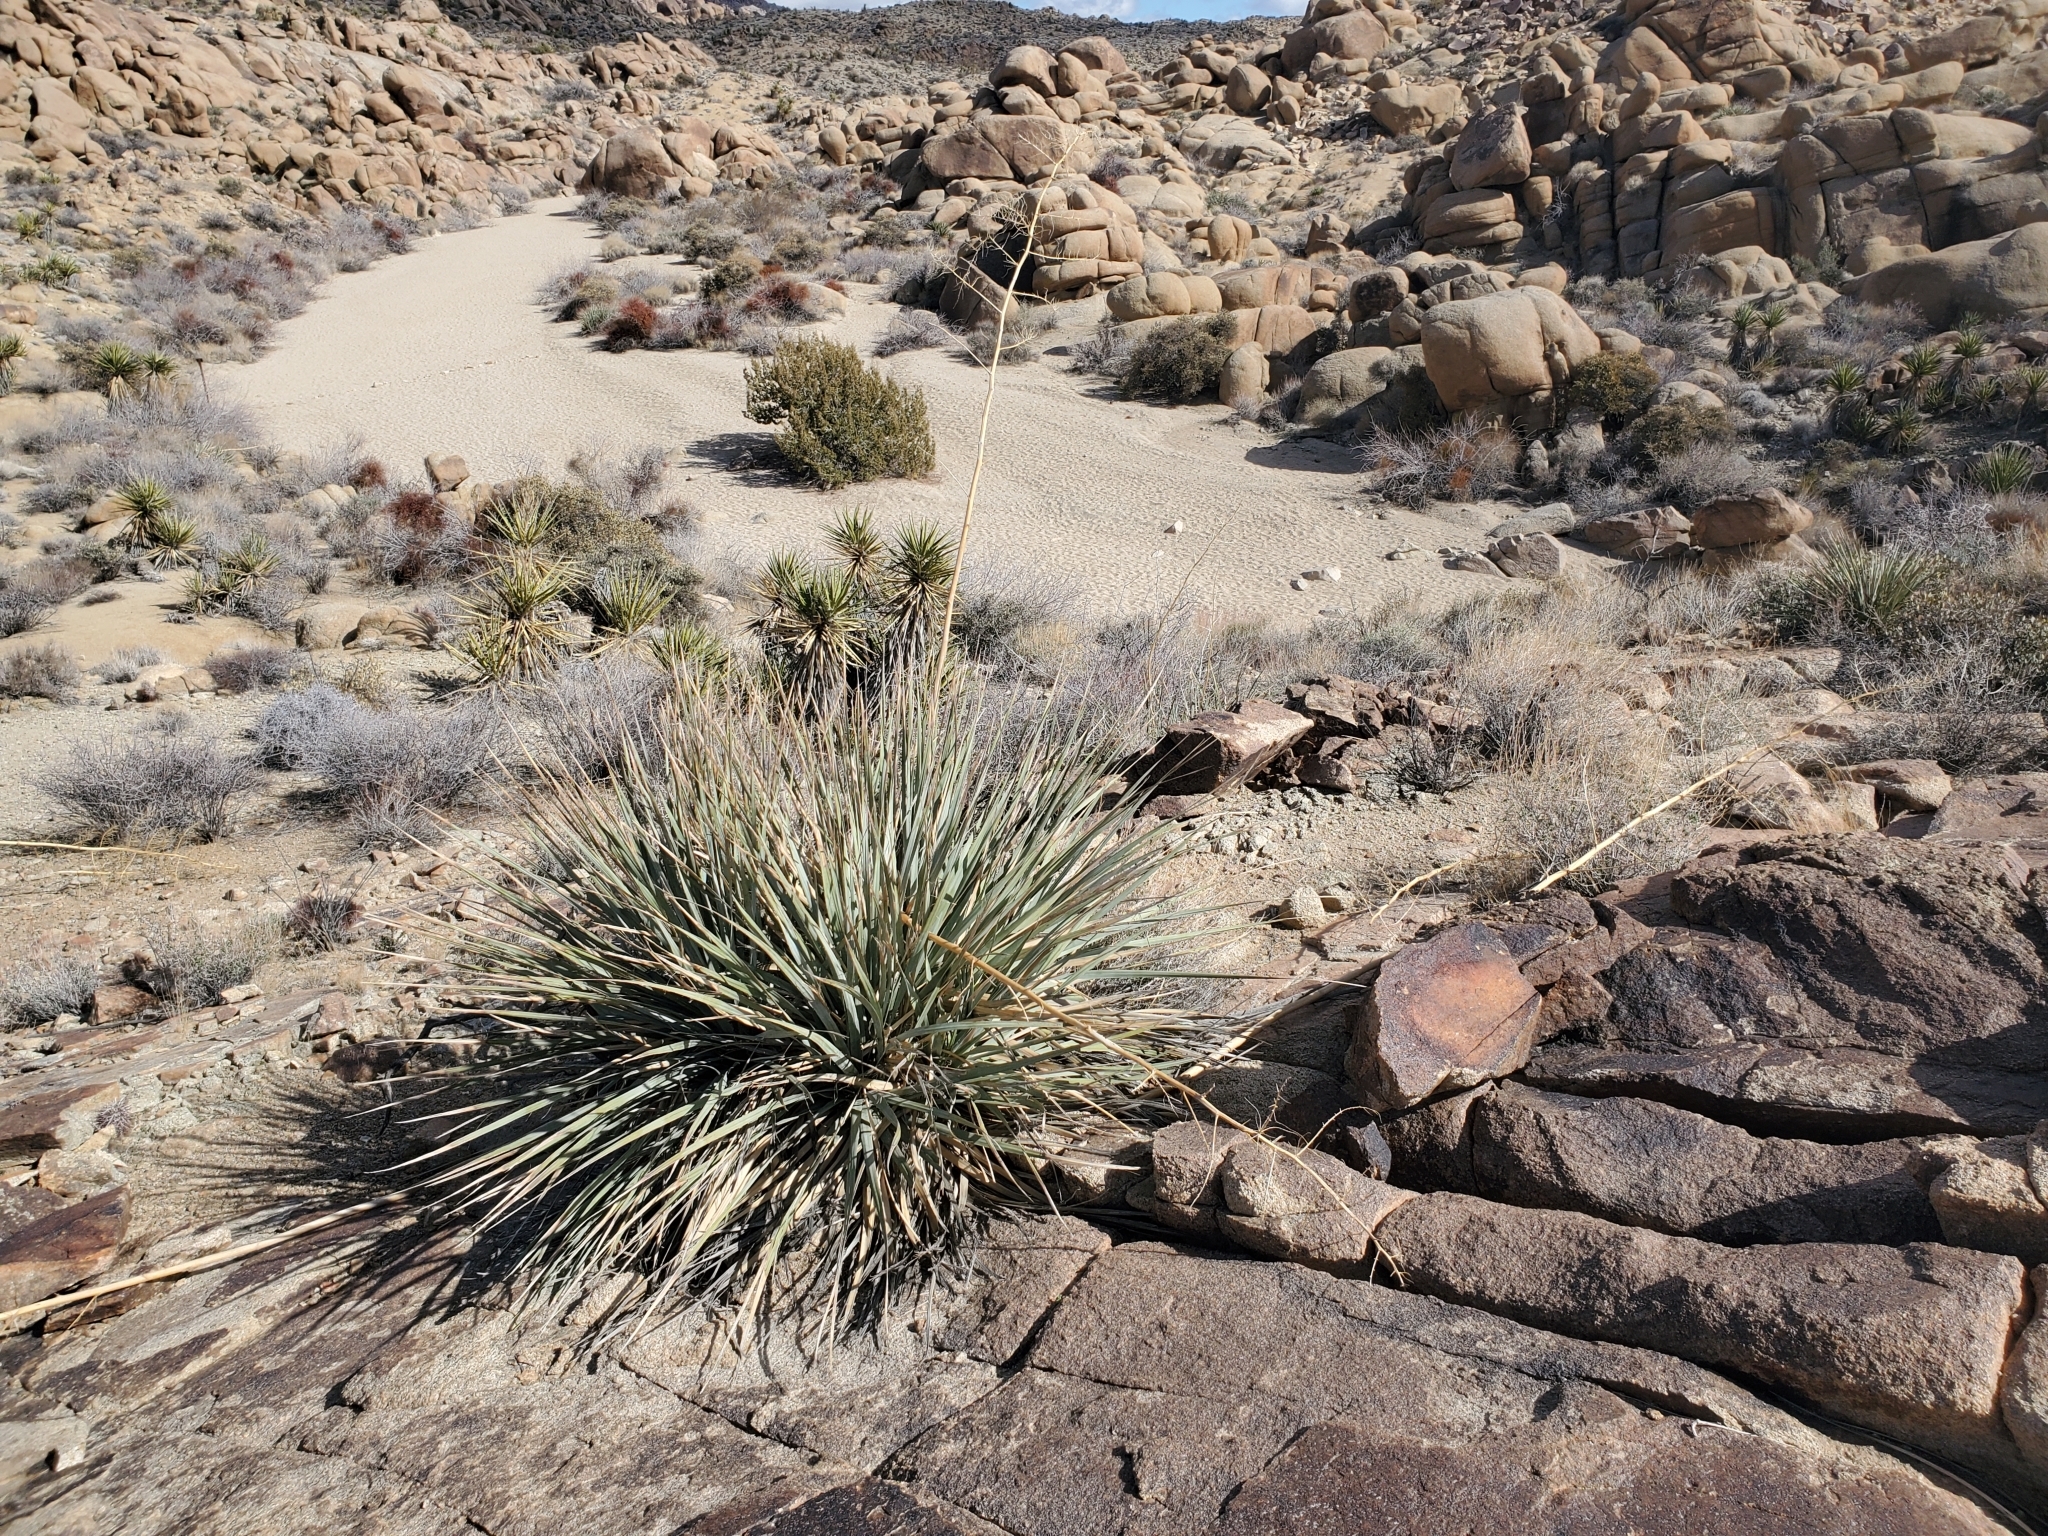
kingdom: Plantae
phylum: Tracheophyta
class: Liliopsida
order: Asparagales
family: Asparagaceae
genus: Nolina
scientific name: Nolina bigelovii
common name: Bigelow bear-grass
